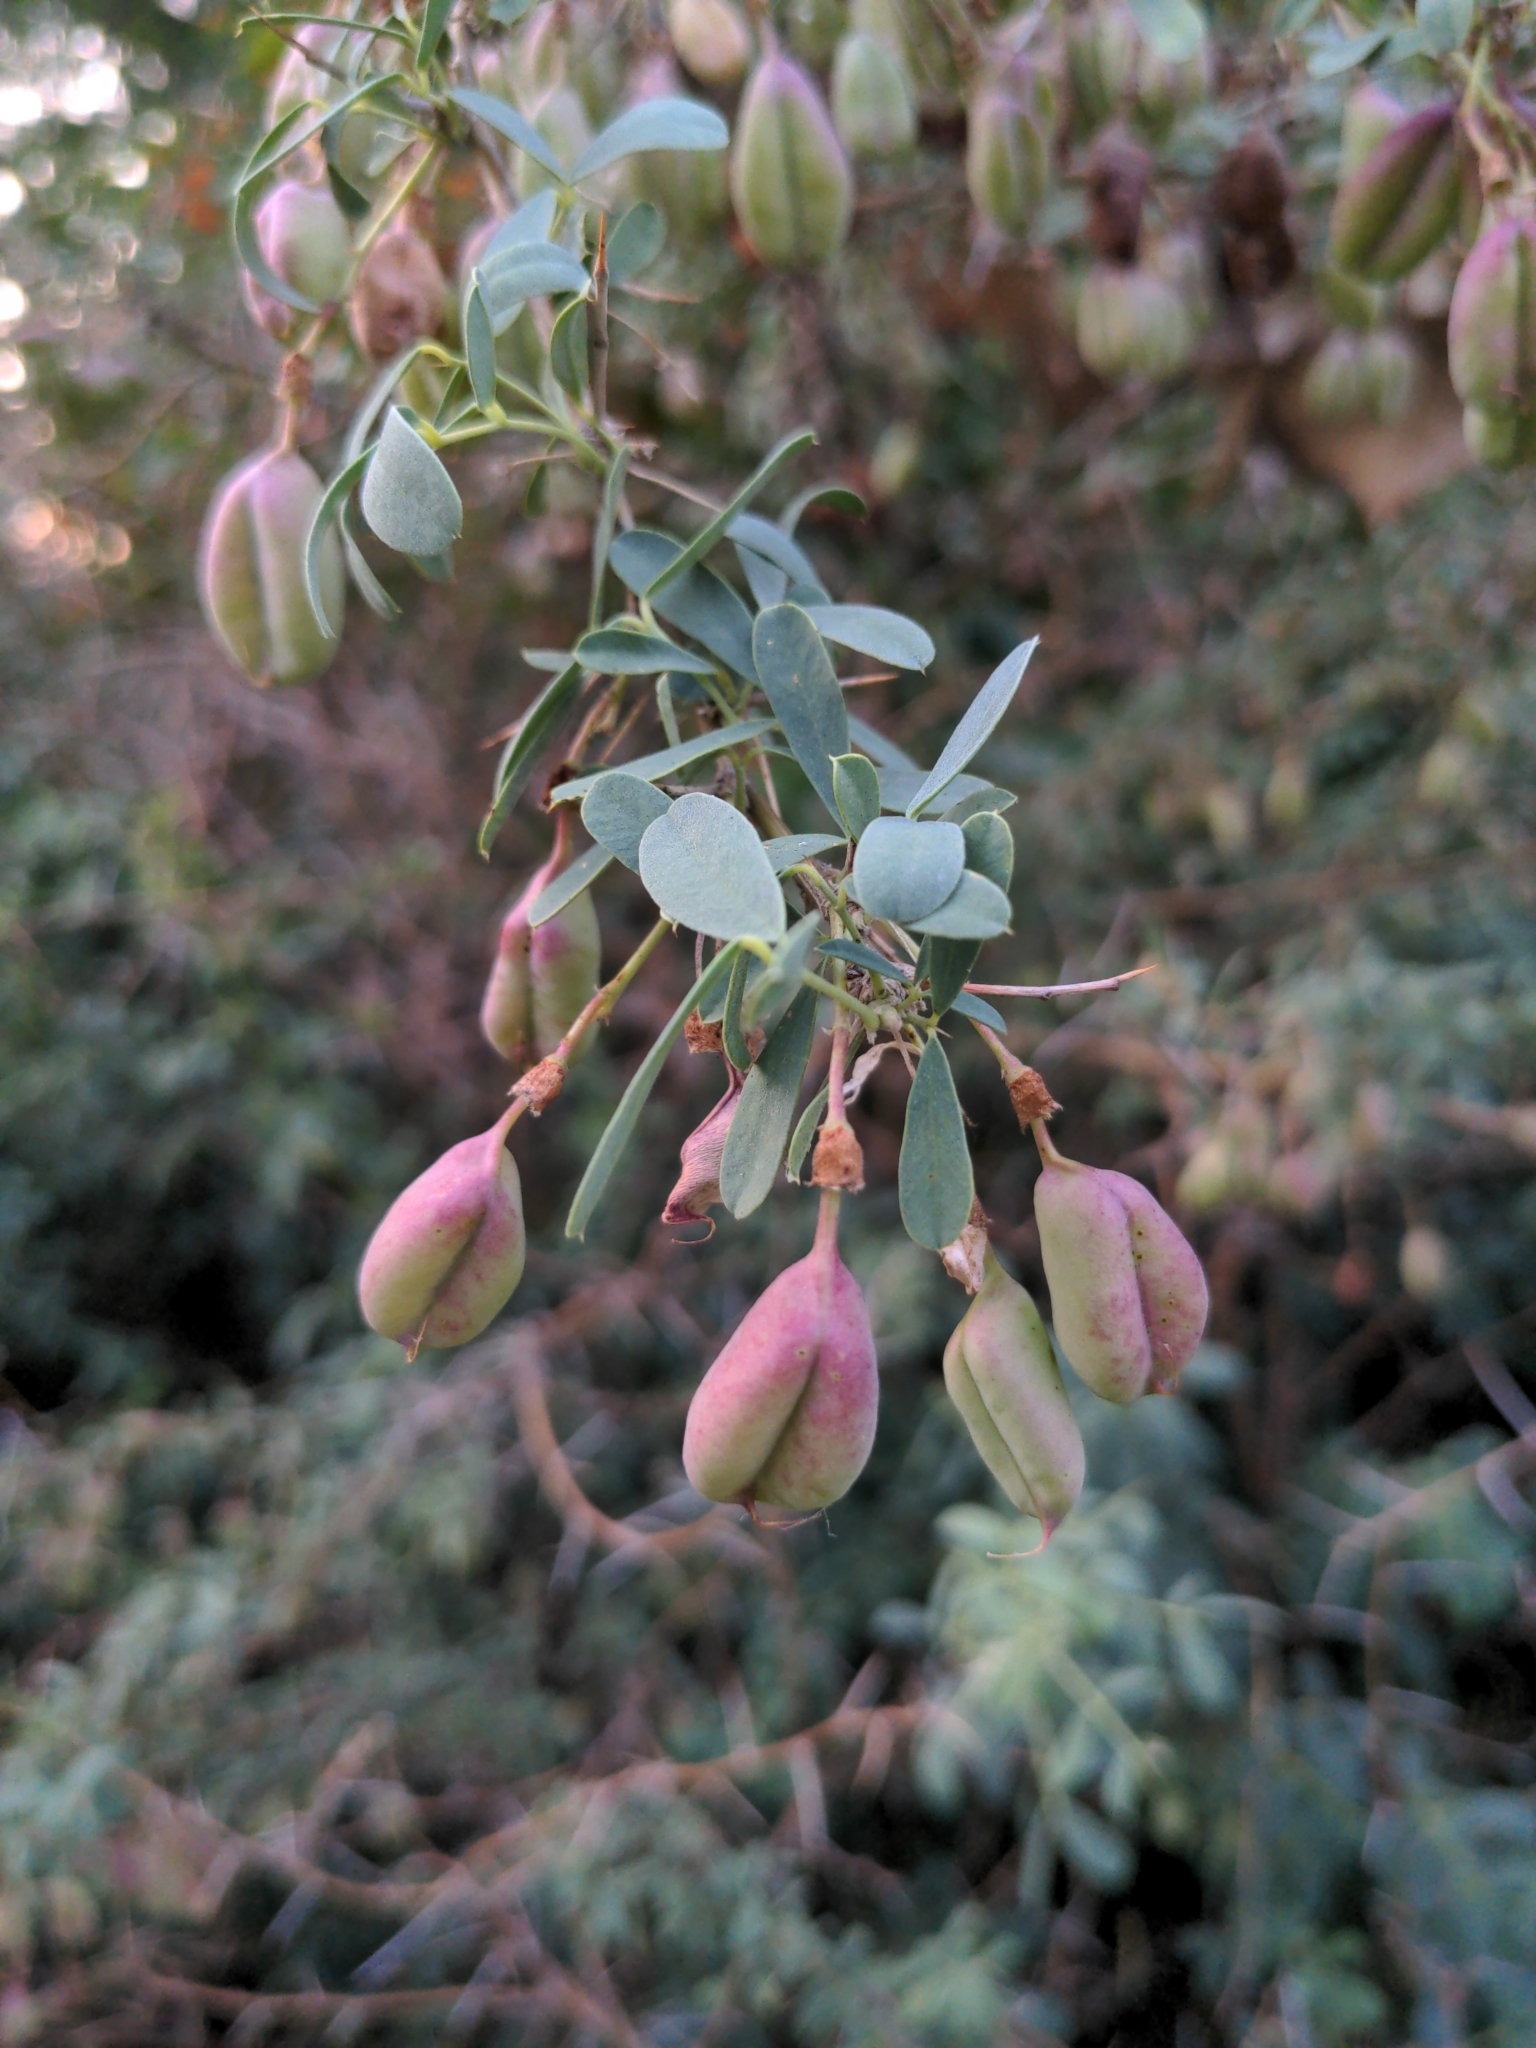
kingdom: Plantae
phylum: Tracheophyta
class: Magnoliopsida
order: Fabales
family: Fabaceae
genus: Caragana
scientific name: Caragana halodendron
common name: Siberian salt-tree
